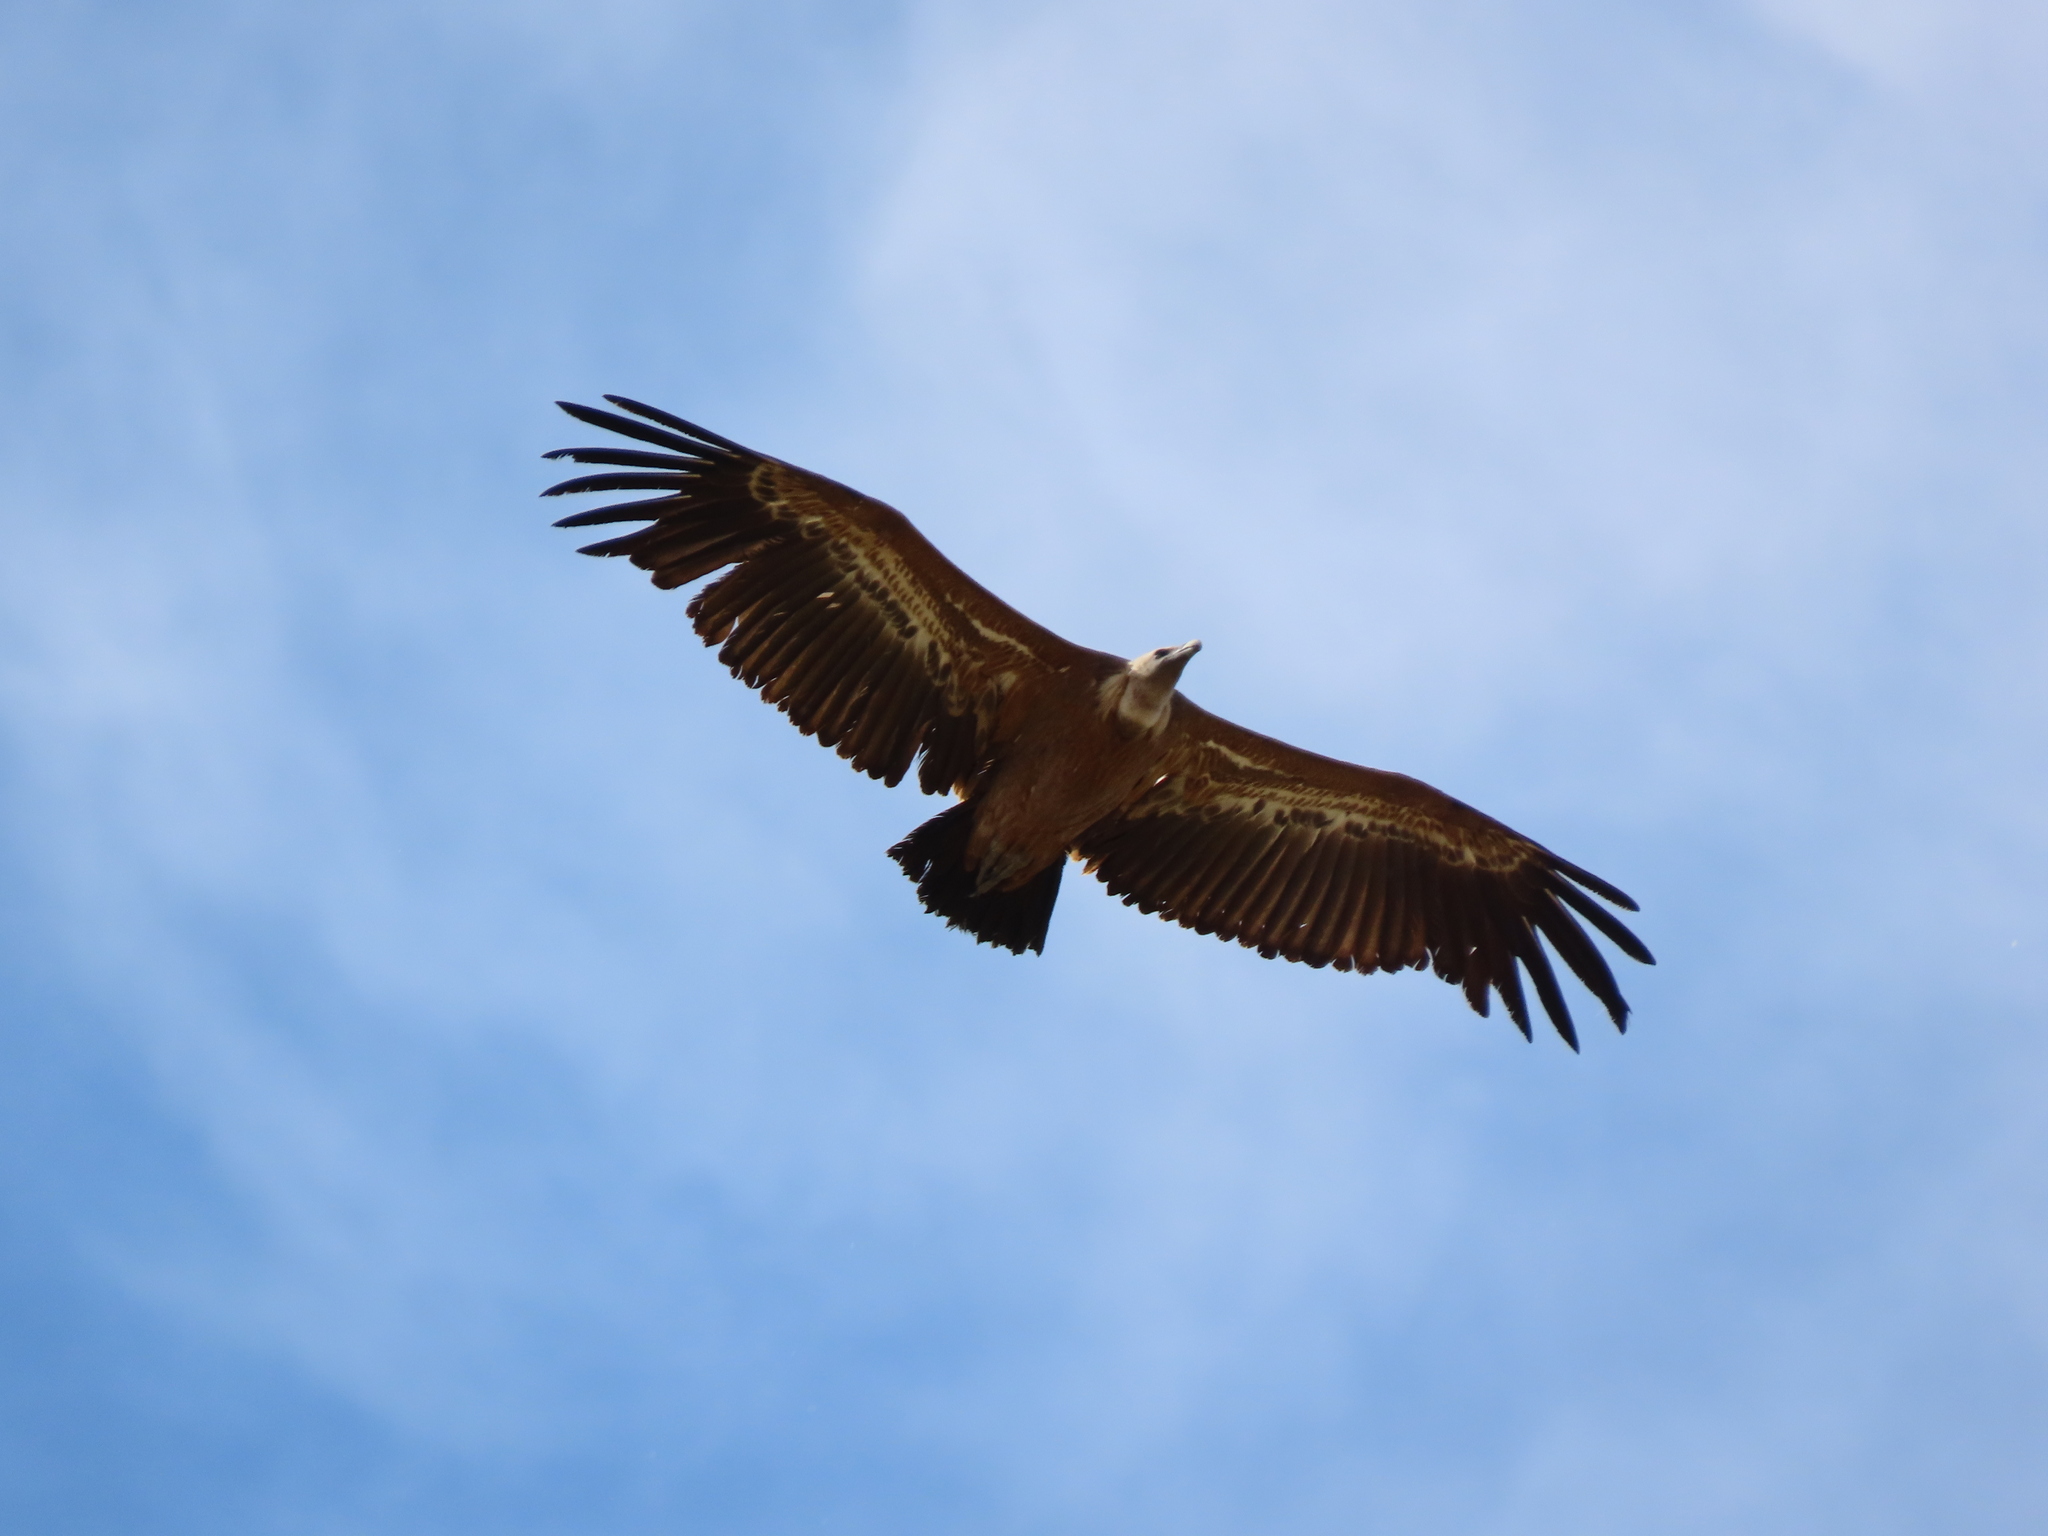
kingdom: Animalia
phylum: Chordata
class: Aves
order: Accipitriformes
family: Accipitridae
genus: Gyps
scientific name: Gyps fulvus
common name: Griffon vulture
